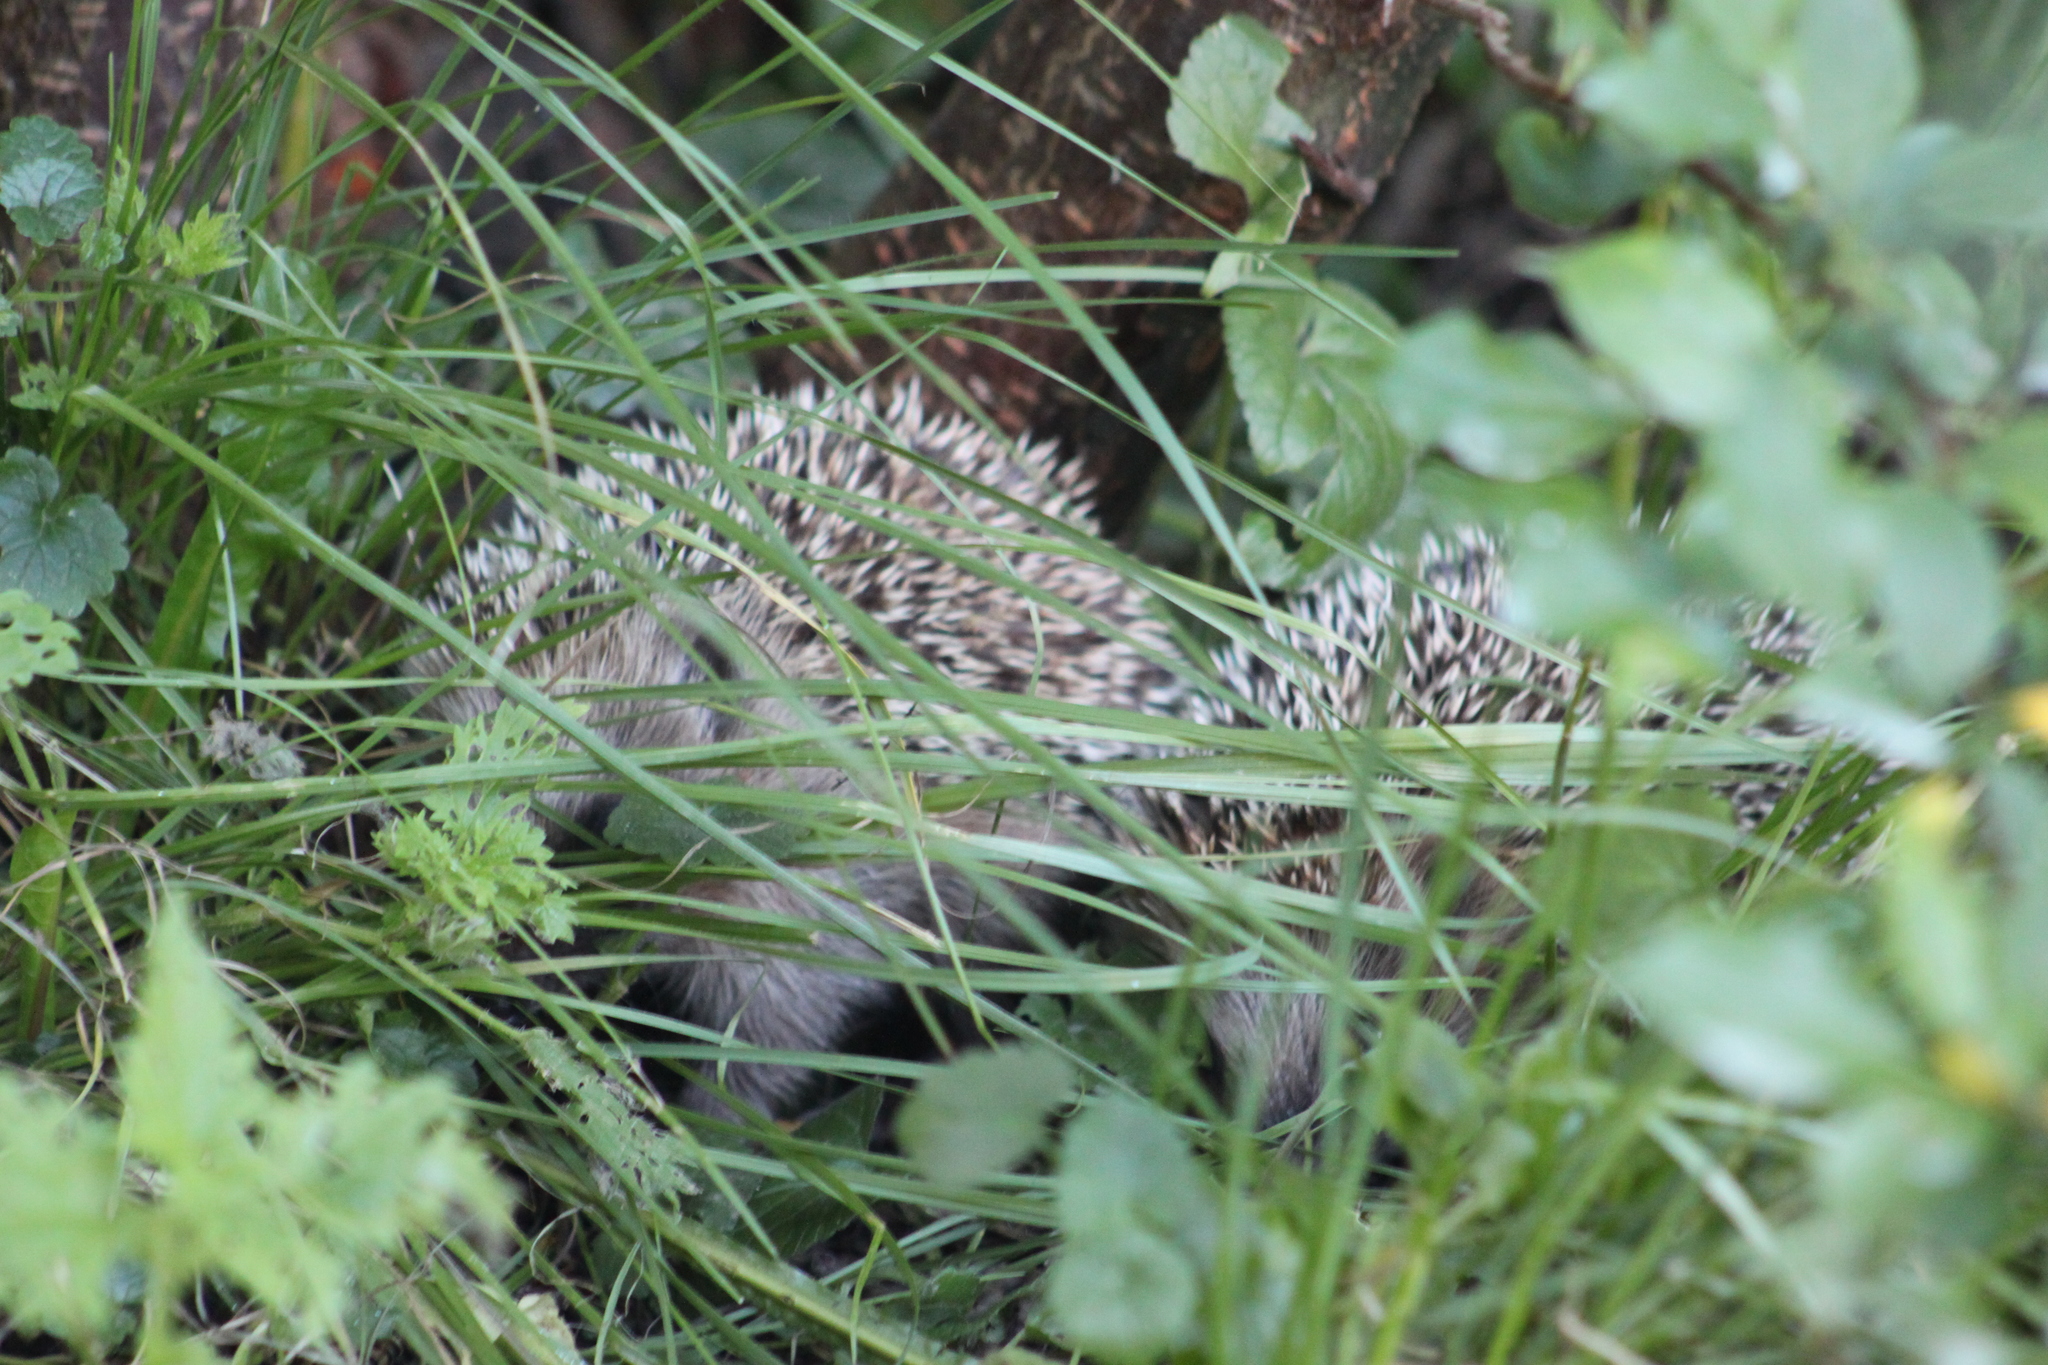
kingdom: Animalia
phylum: Chordata
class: Mammalia
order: Erinaceomorpha
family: Erinaceidae
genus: Erinaceus
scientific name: Erinaceus europaeus
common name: West european hedgehog
